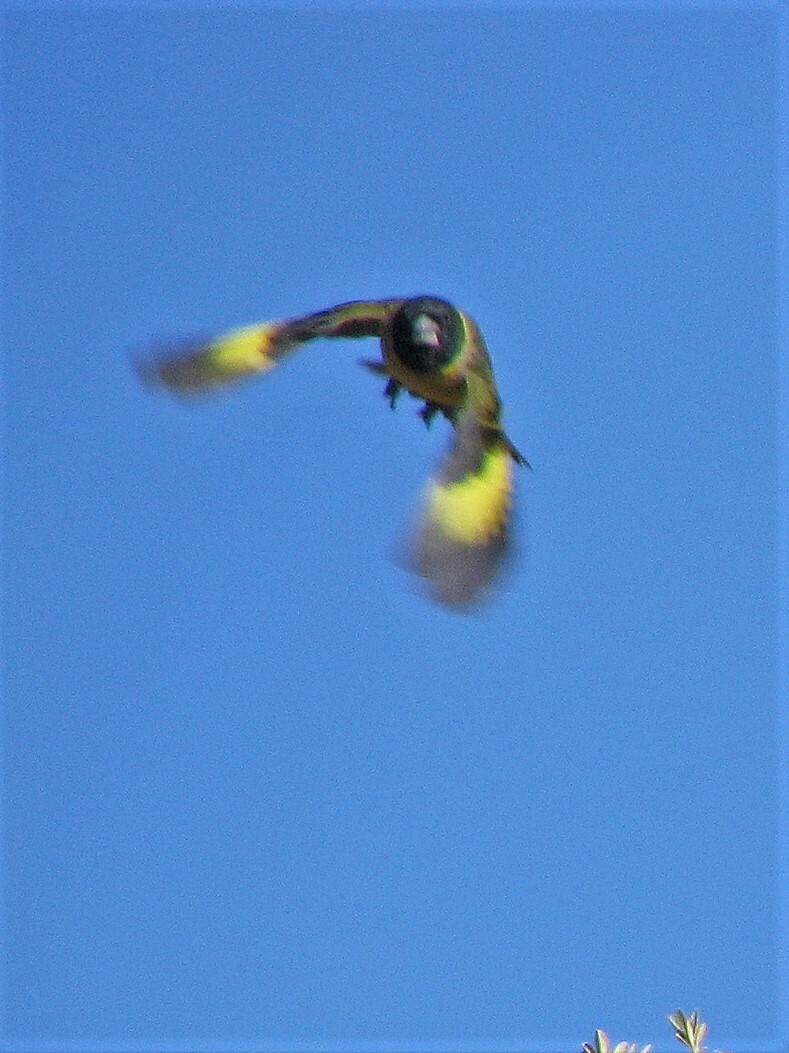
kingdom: Animalia
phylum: Chordata
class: Aves
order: Passeriformes
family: Fringillidae
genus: Spinus
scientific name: Spinus crassirostris
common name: Thick-billed siskin
